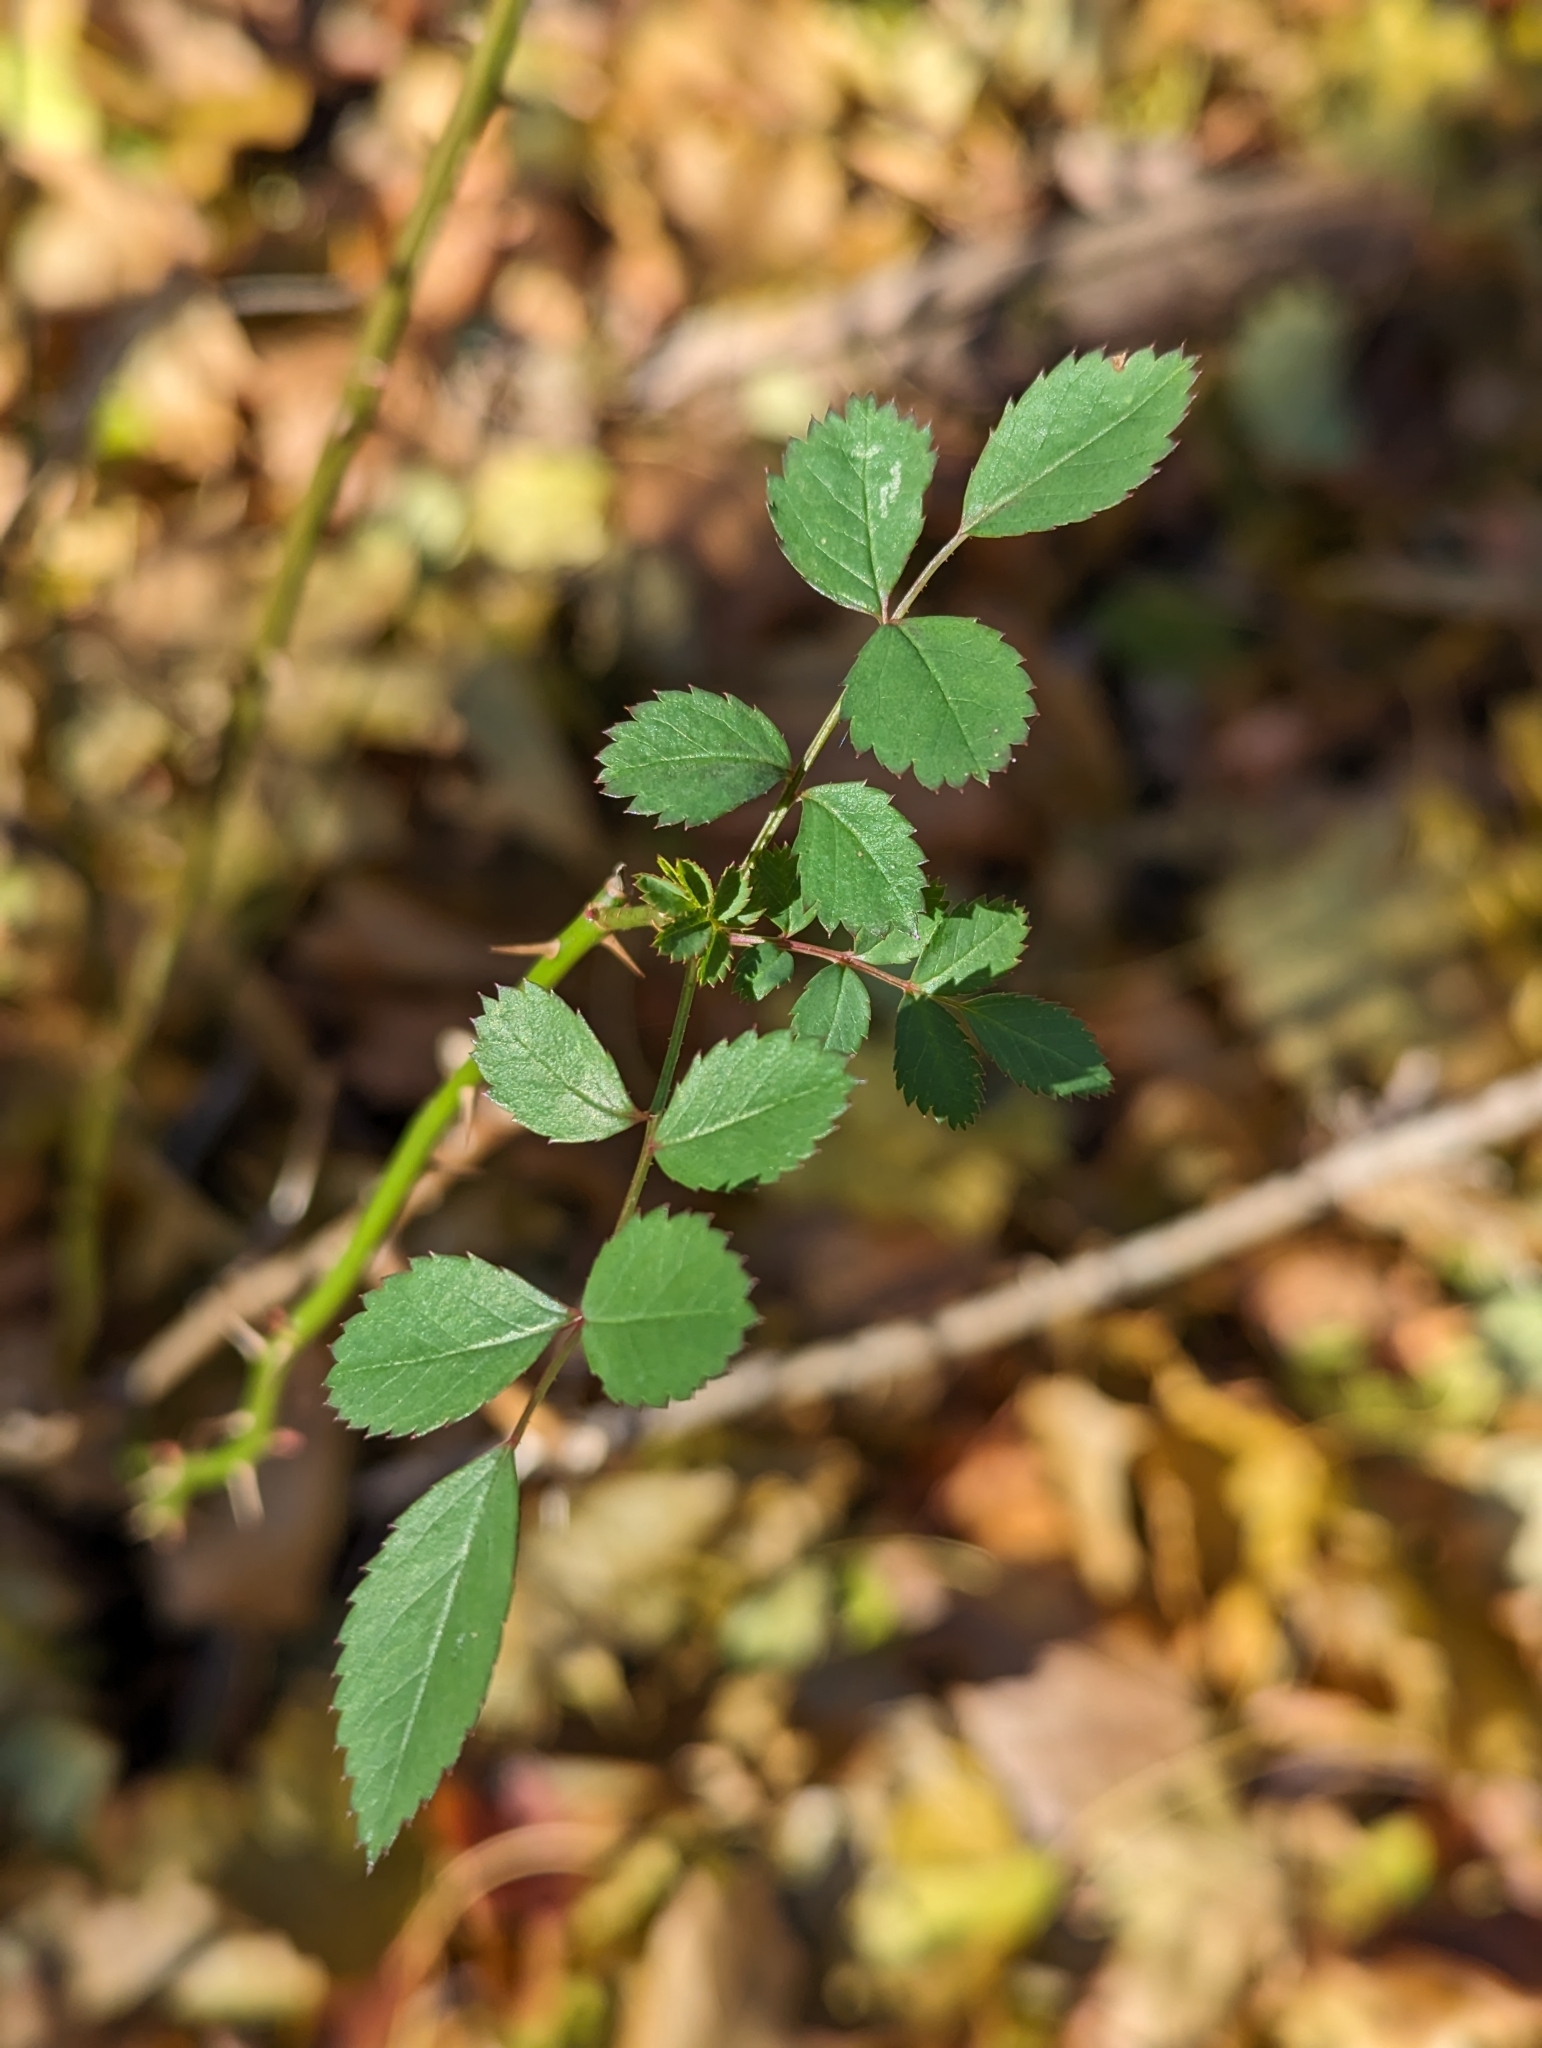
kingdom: Plantae
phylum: Tracheophyta
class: Magnoliopsida
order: Rosales
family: Rosaceae
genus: Rosa
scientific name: Rosa multiflora
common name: Multiflora rose
